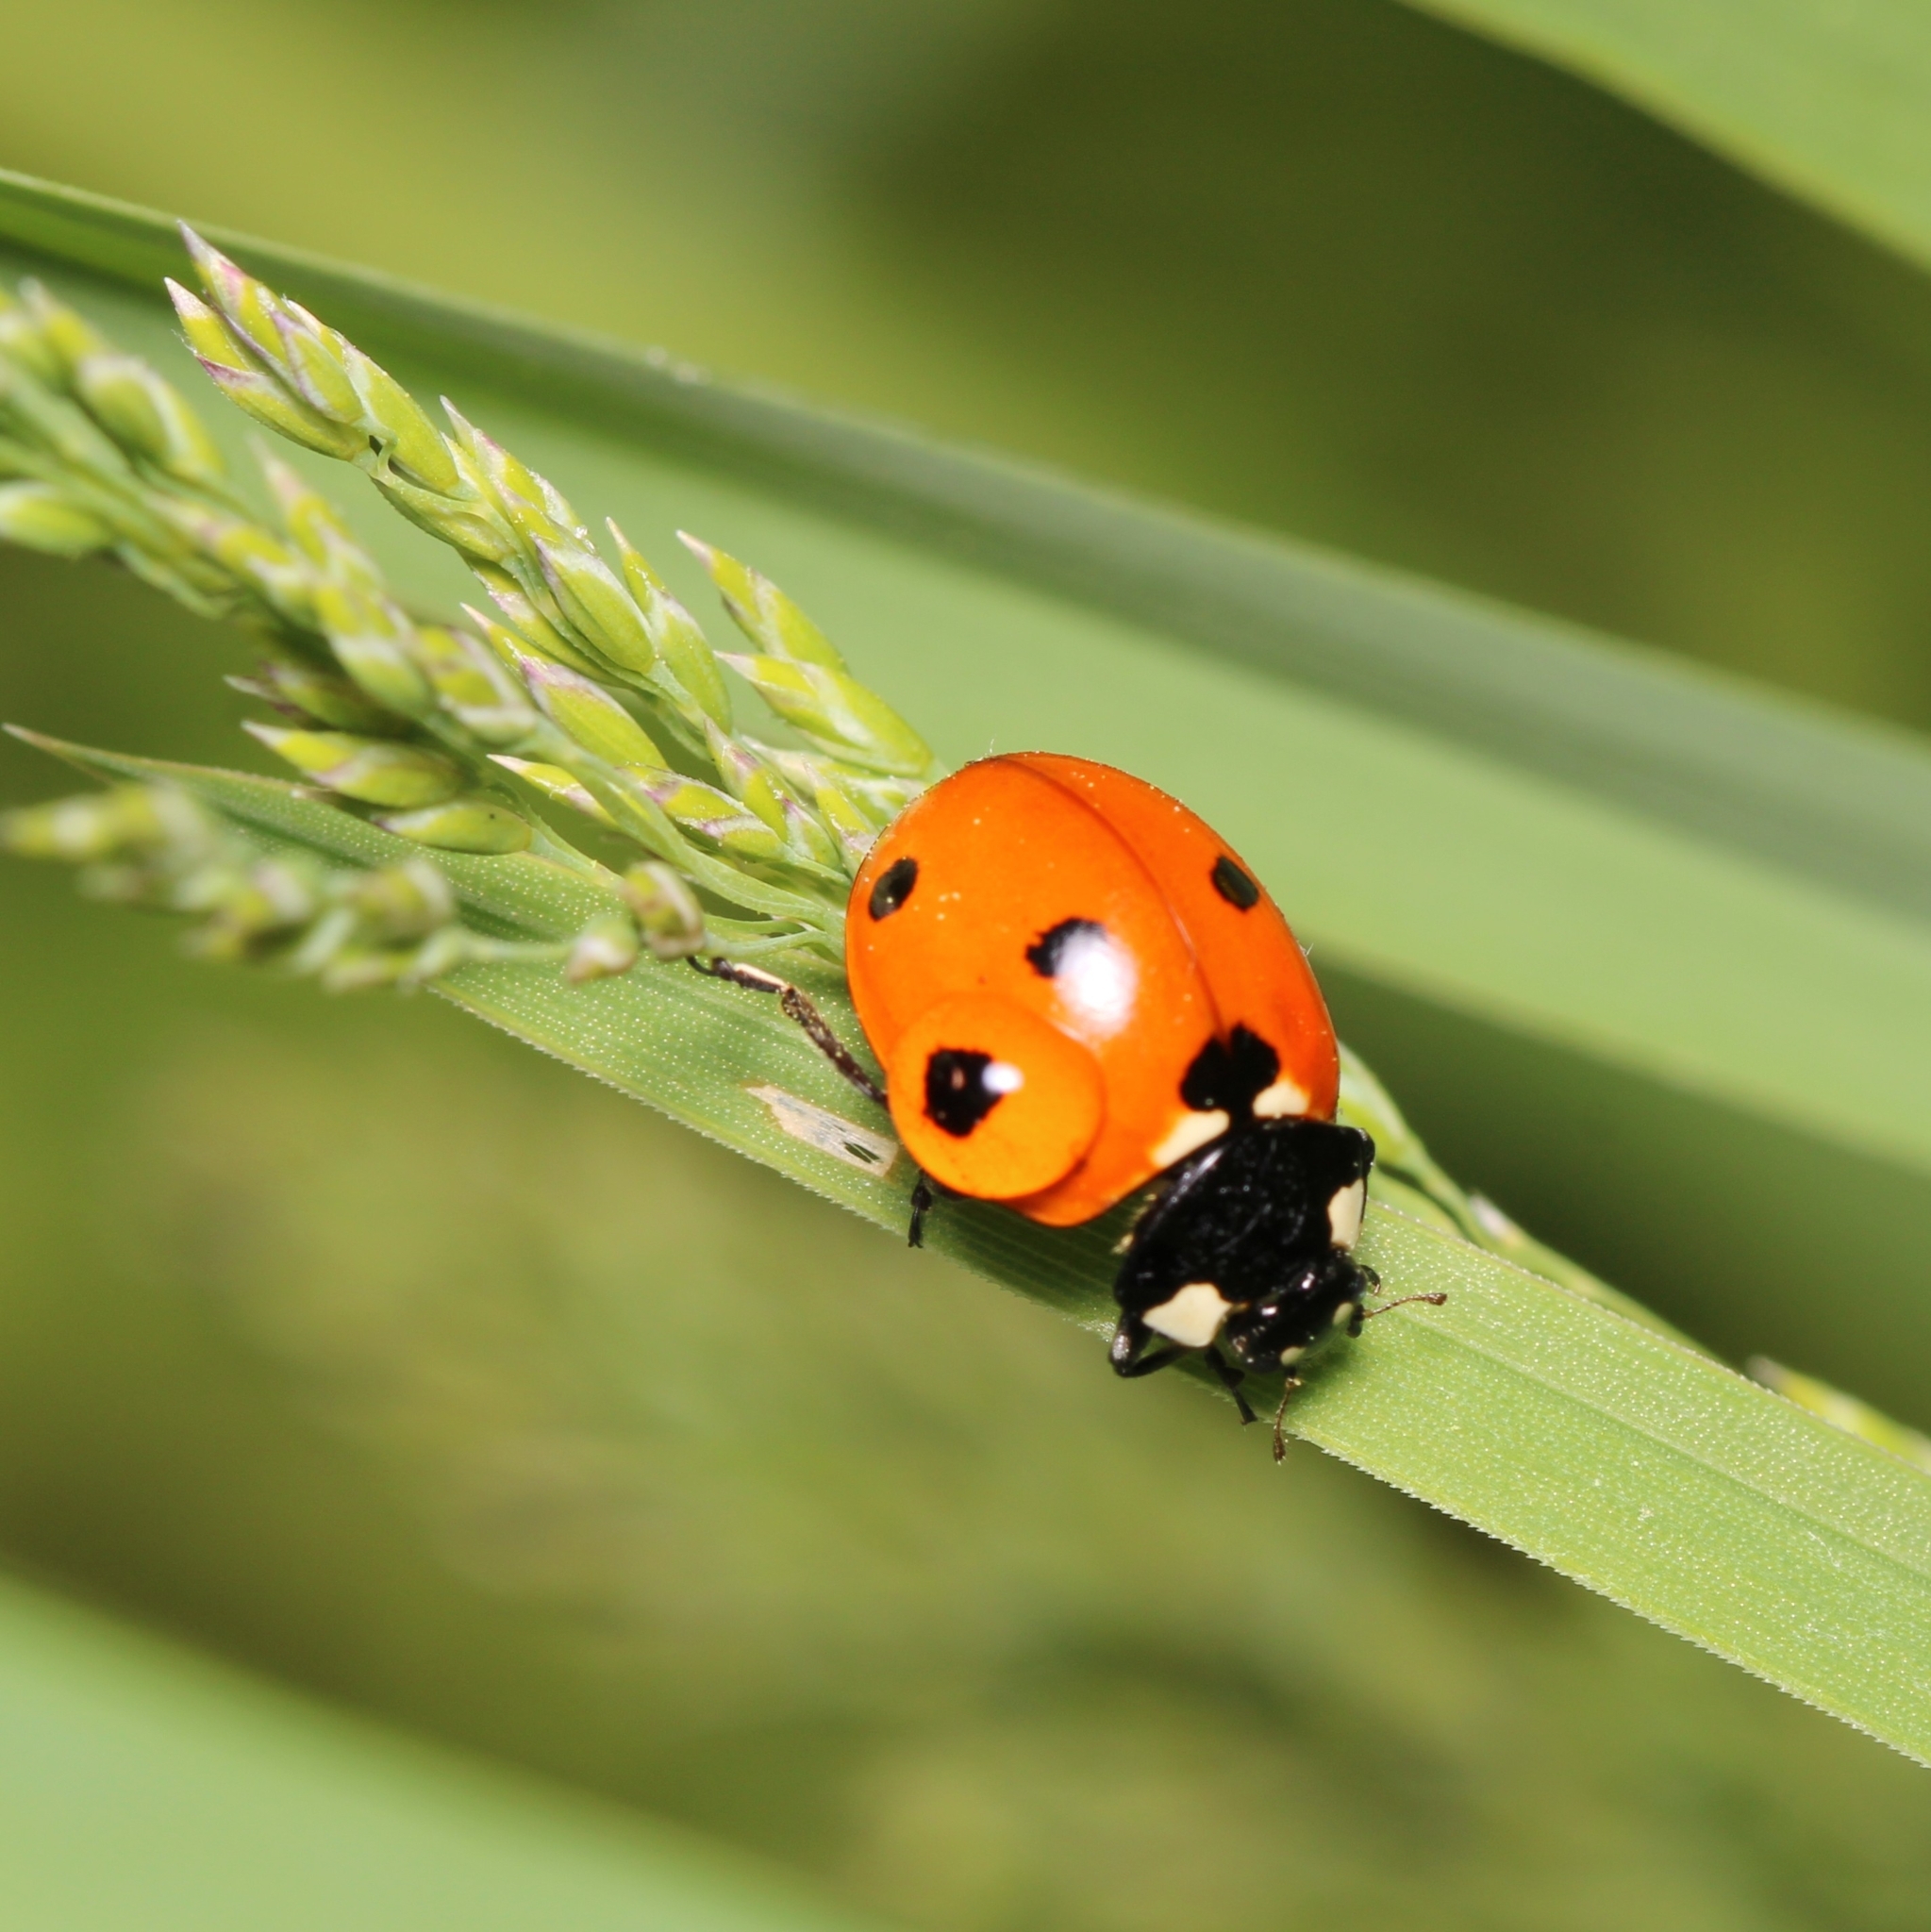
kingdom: Animalia
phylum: Arthropoda
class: Insecta
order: Coleoptera
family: Coccinellidae
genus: Coccinella
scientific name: Coccinella septempunctata
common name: Sevenspotted lady beetle
